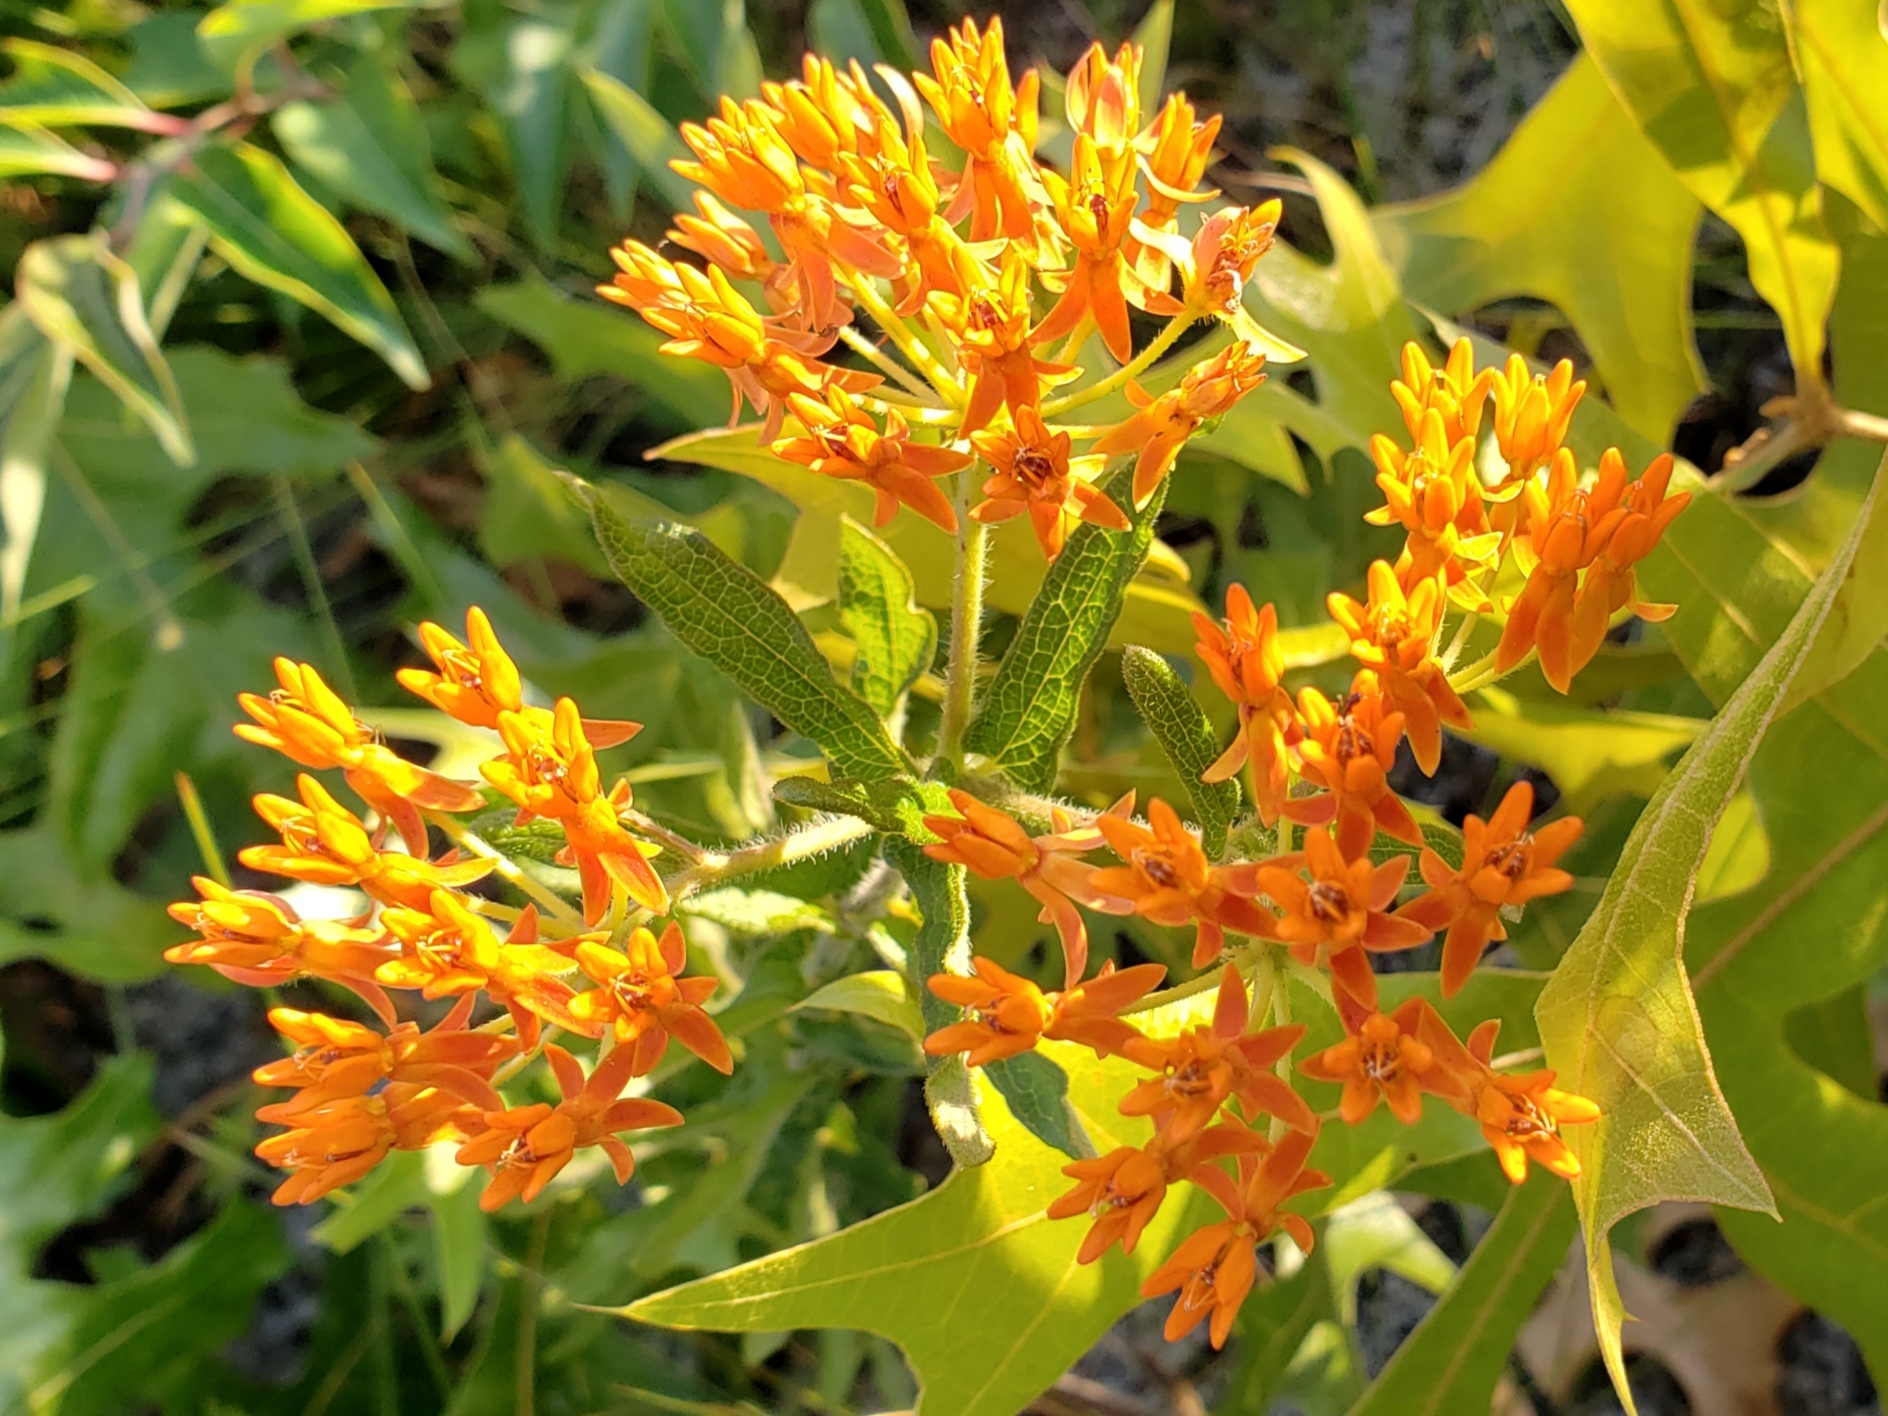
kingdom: Plantae
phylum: Tracheophyta
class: Magnoliopsida
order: Gentianales
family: Apocynaceae
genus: Asclepias
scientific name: Asclepias tuberosa
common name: Butterfly milkweed
